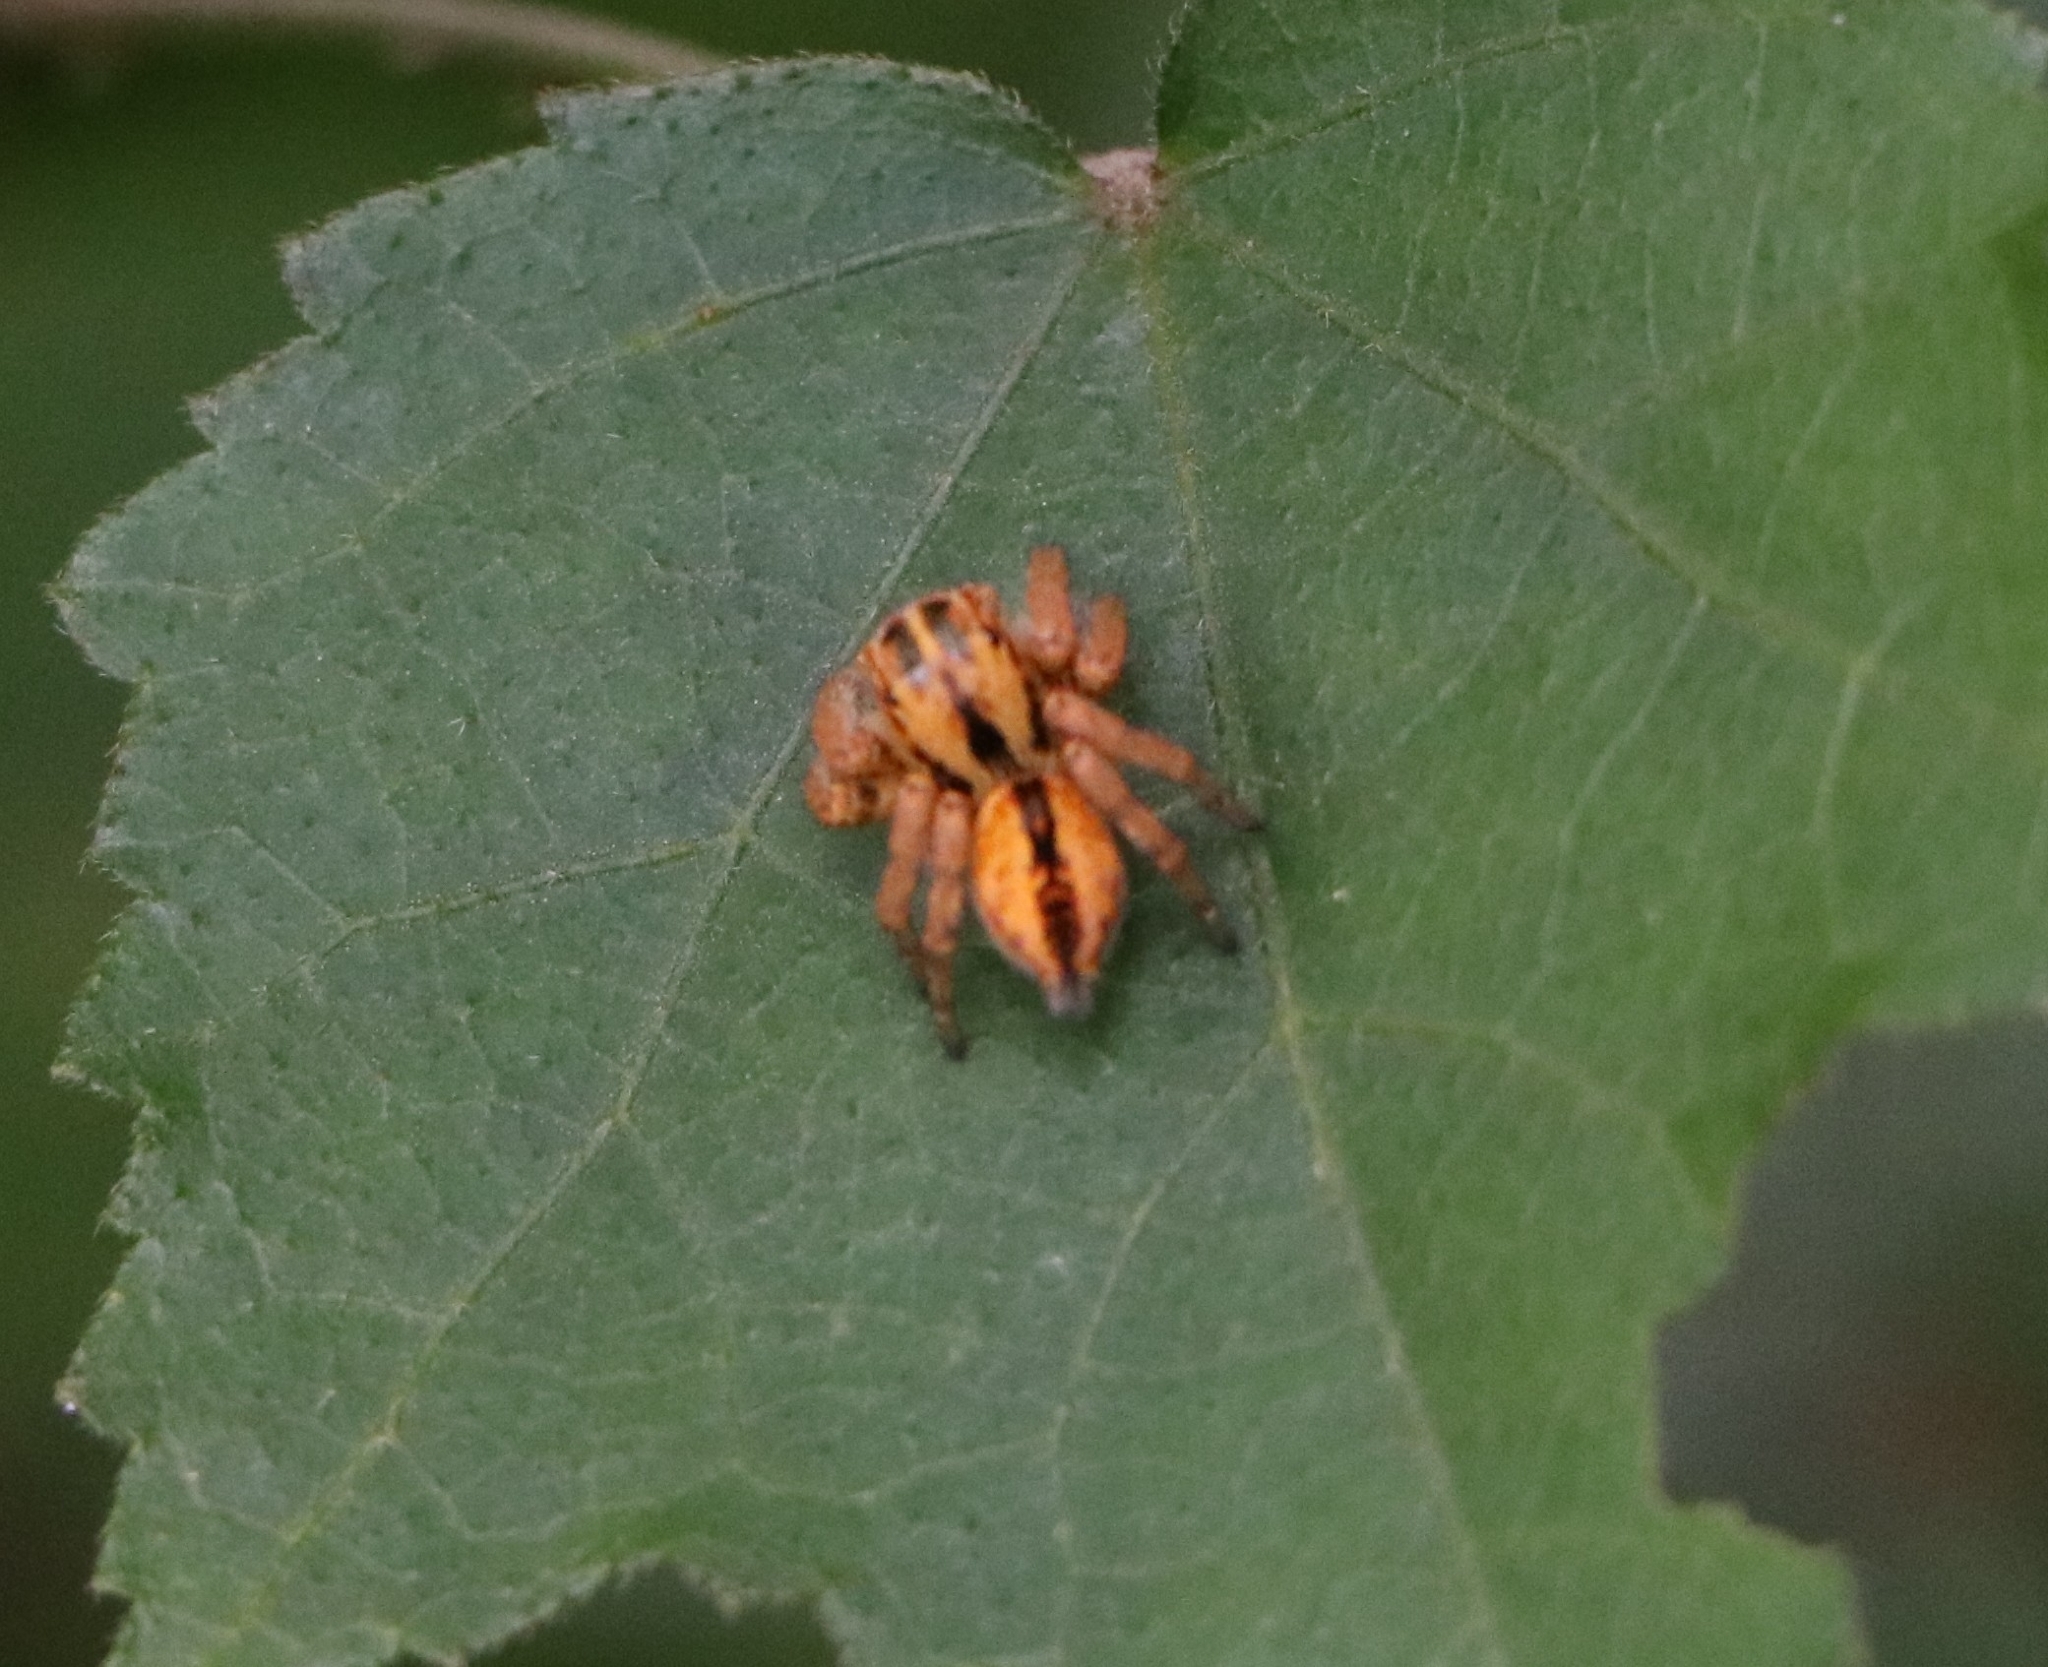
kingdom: Animalia
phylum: Arthropoda
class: Arachnida
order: Araneae
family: Salticidae
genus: Carrhotus
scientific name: Carrhotus viduus
